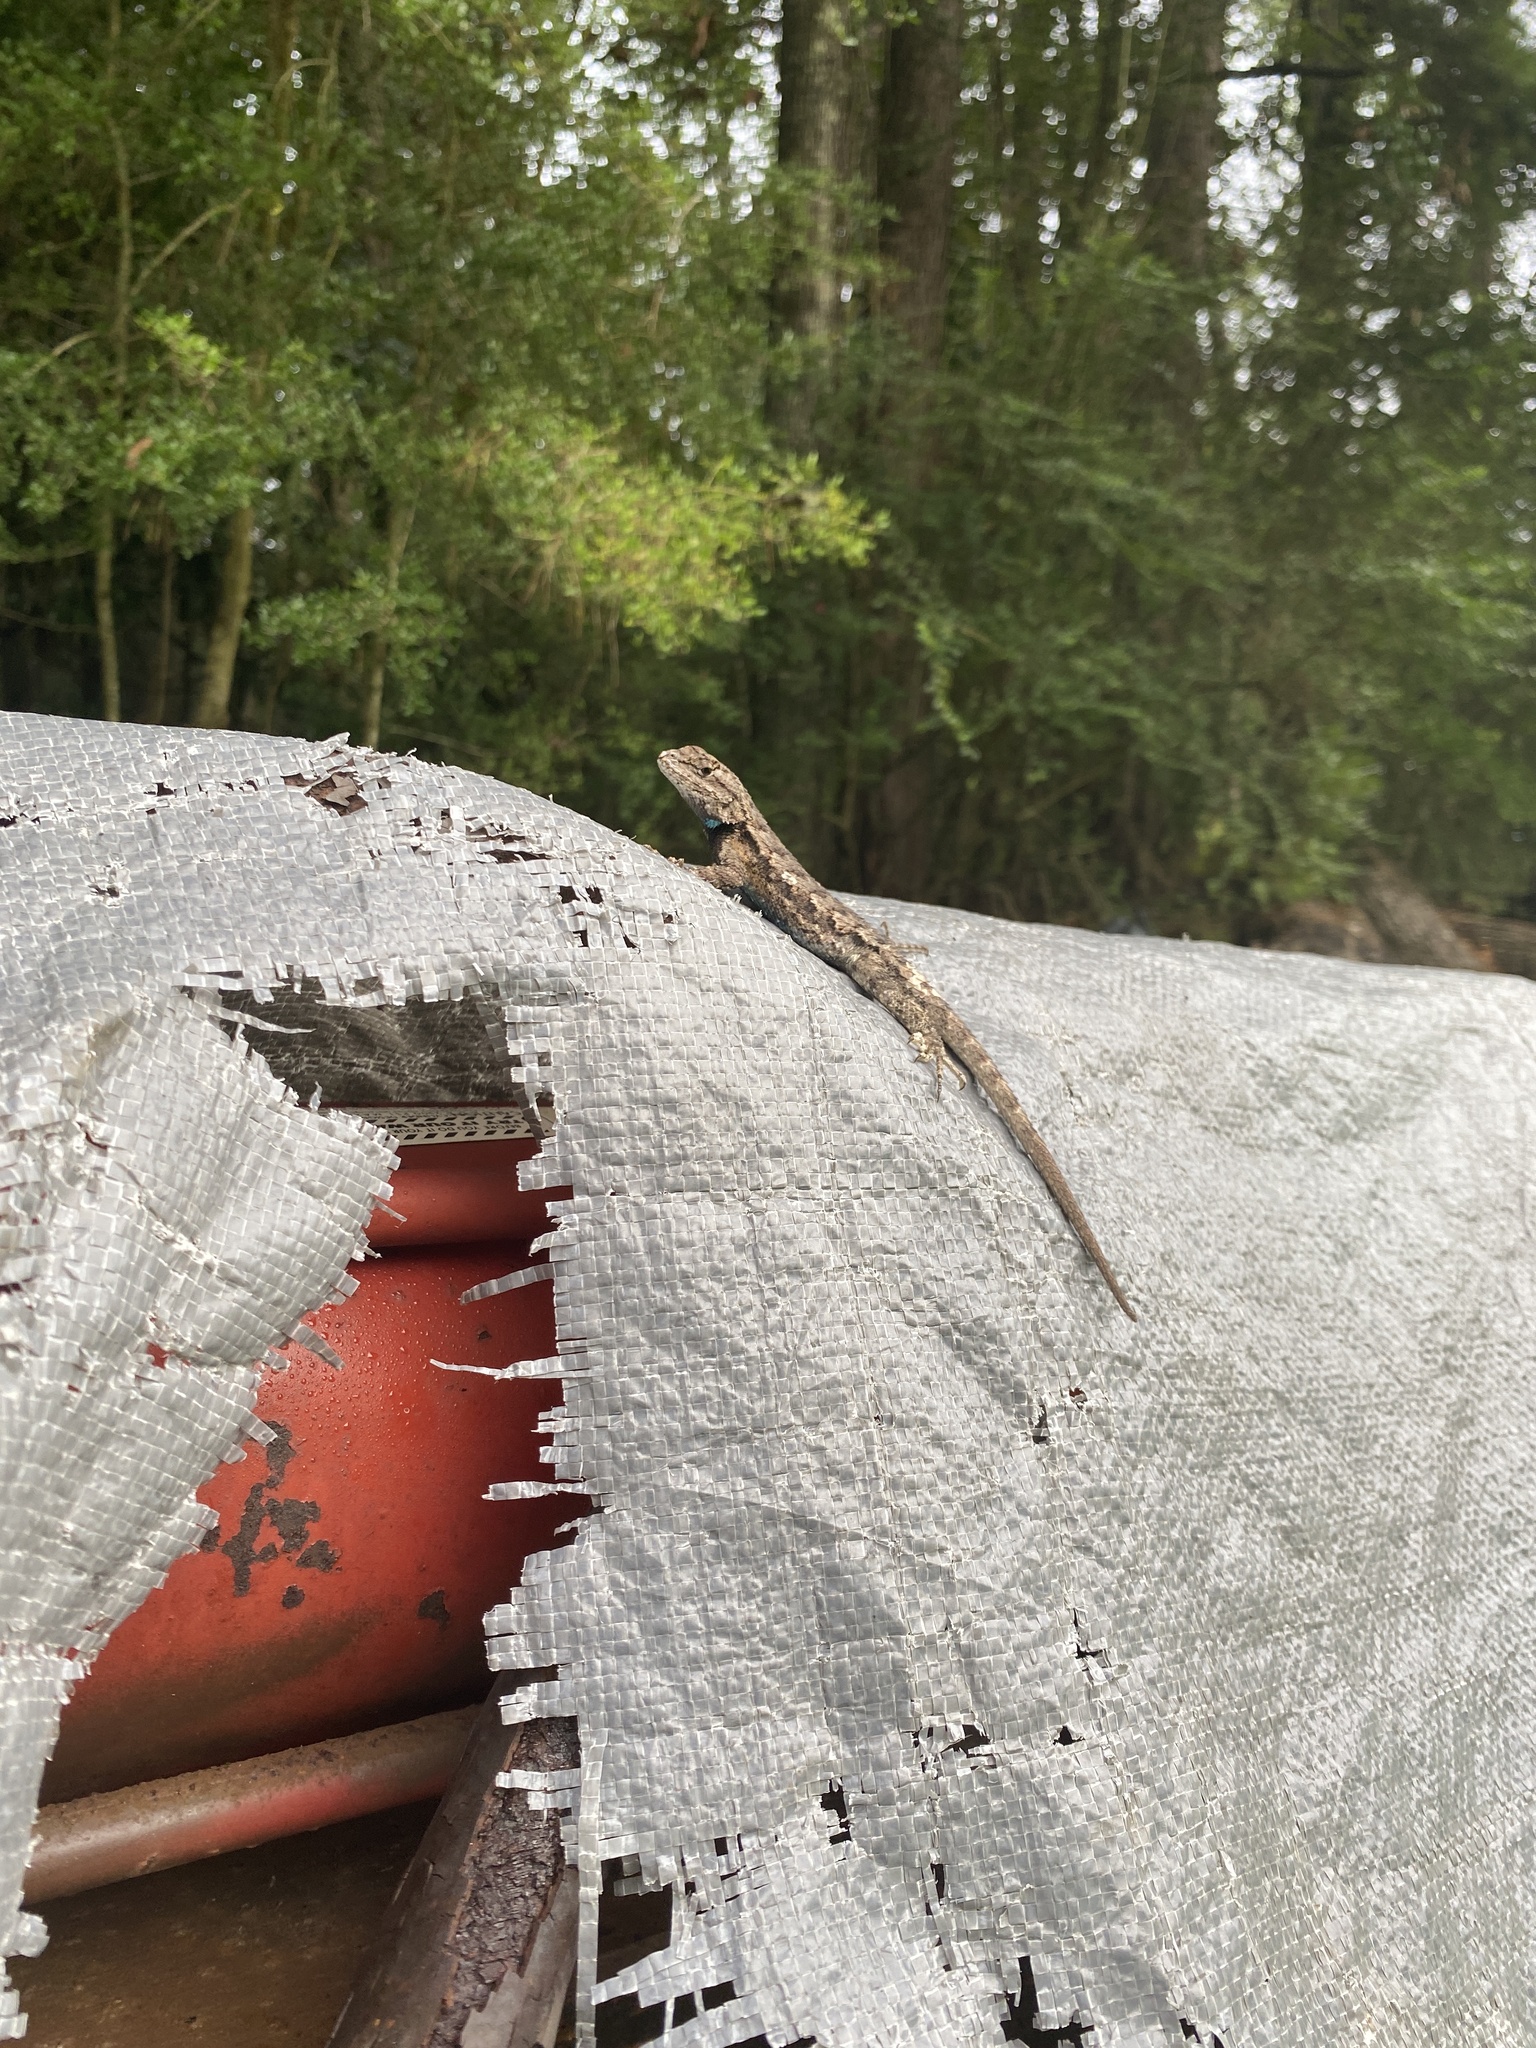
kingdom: Animalia
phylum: Chordata
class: Squamata
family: Phrynosomatidae
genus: Sceloporus
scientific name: Sceloporus consobrinus
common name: Southern prairie lizard
